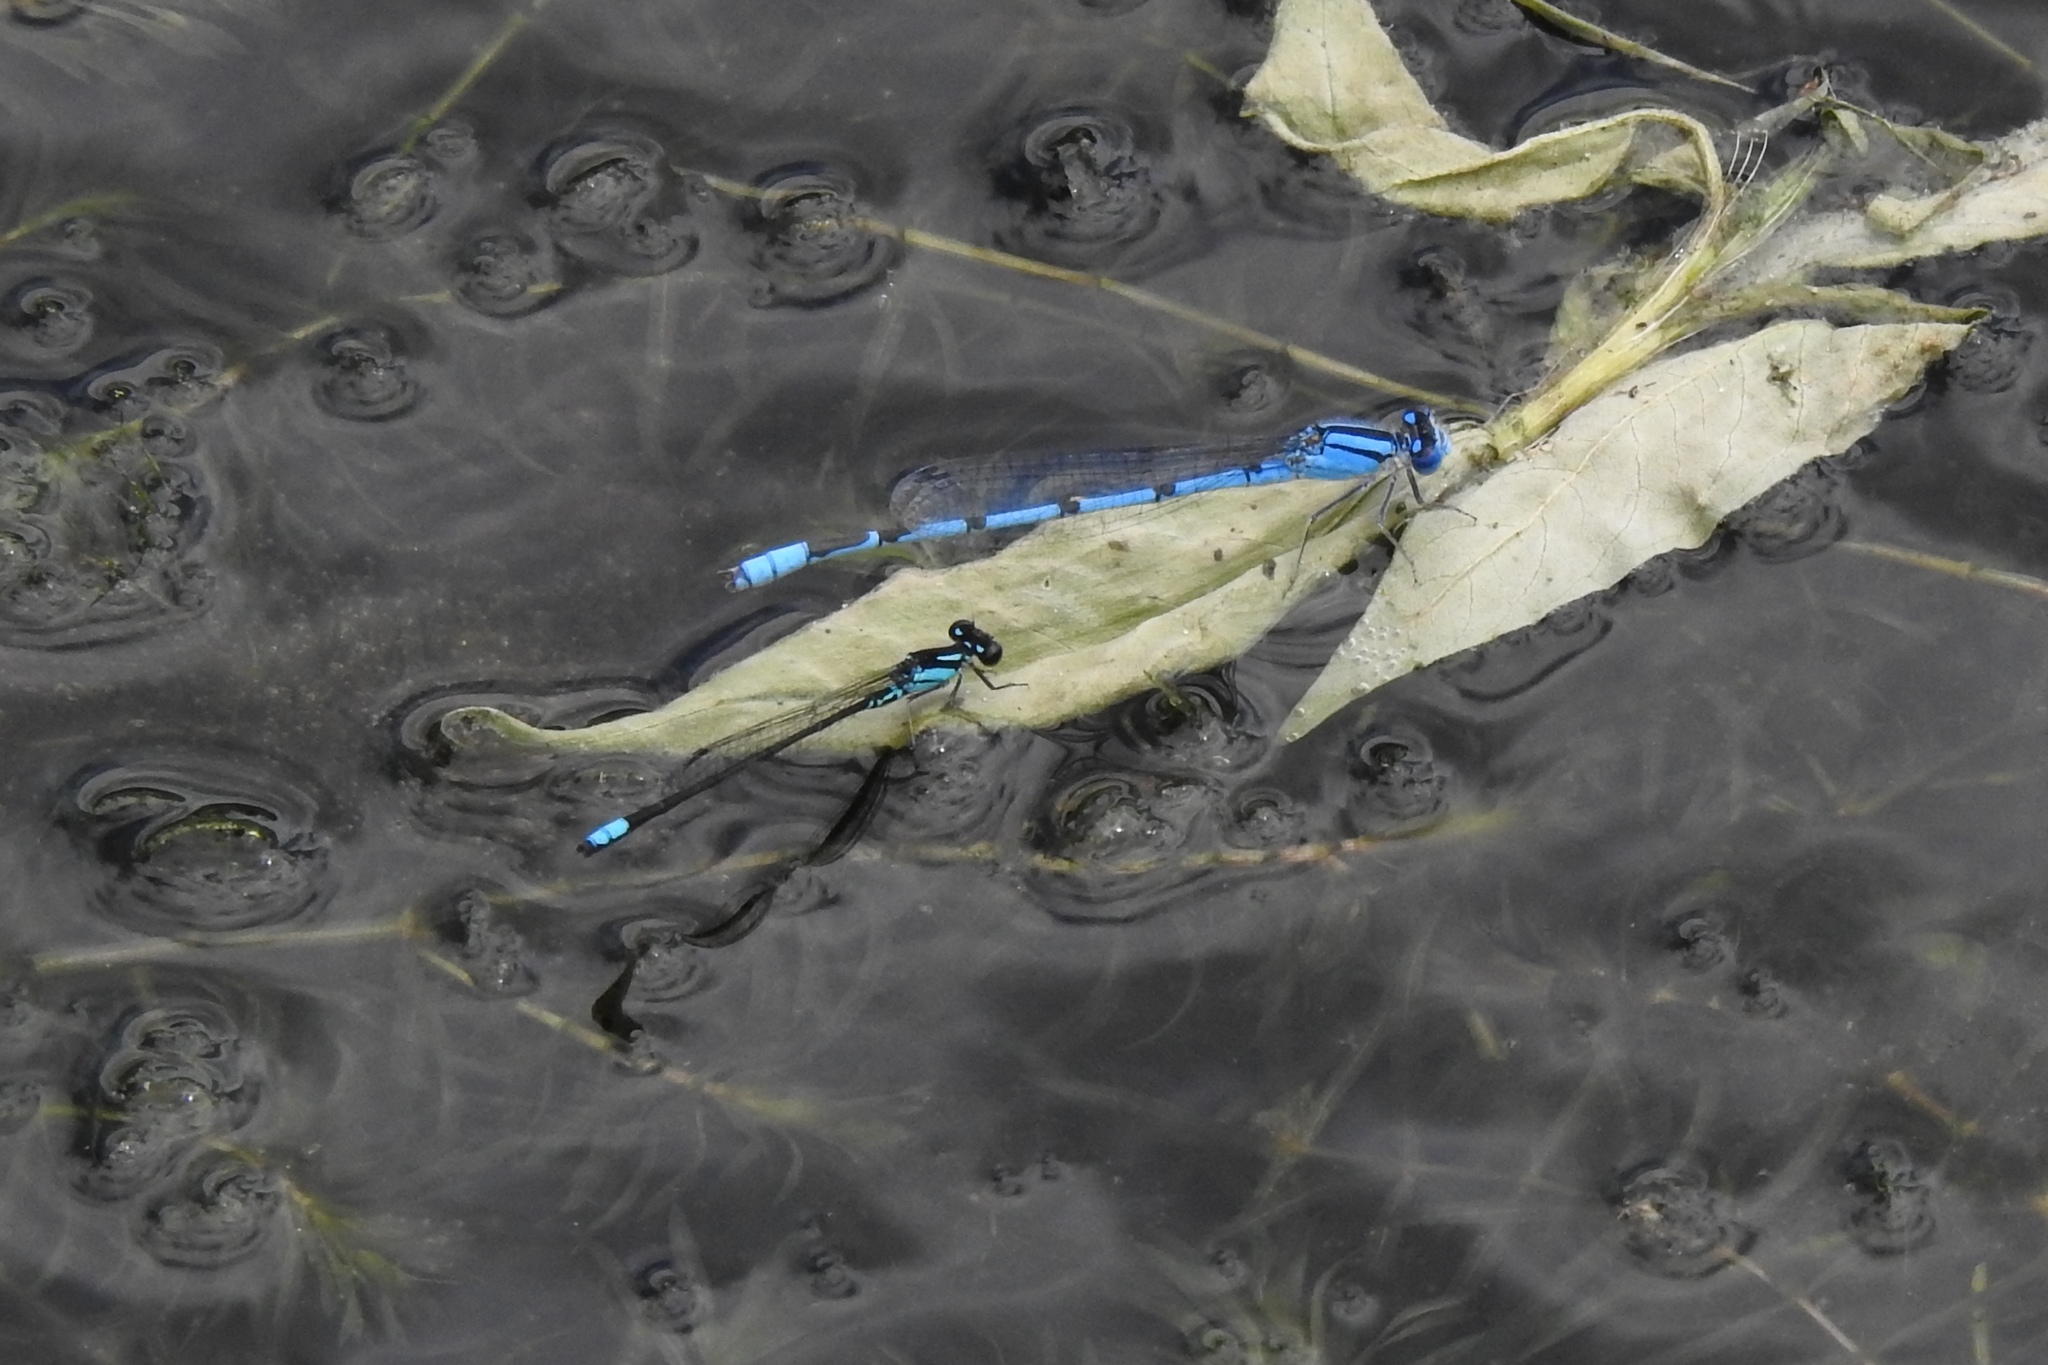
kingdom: Animalia
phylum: Arthropoda
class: Insecta
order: Odonata
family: Coenagrionidae
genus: Enallagma
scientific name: Enallagma geminatum
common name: Skimming bluet
